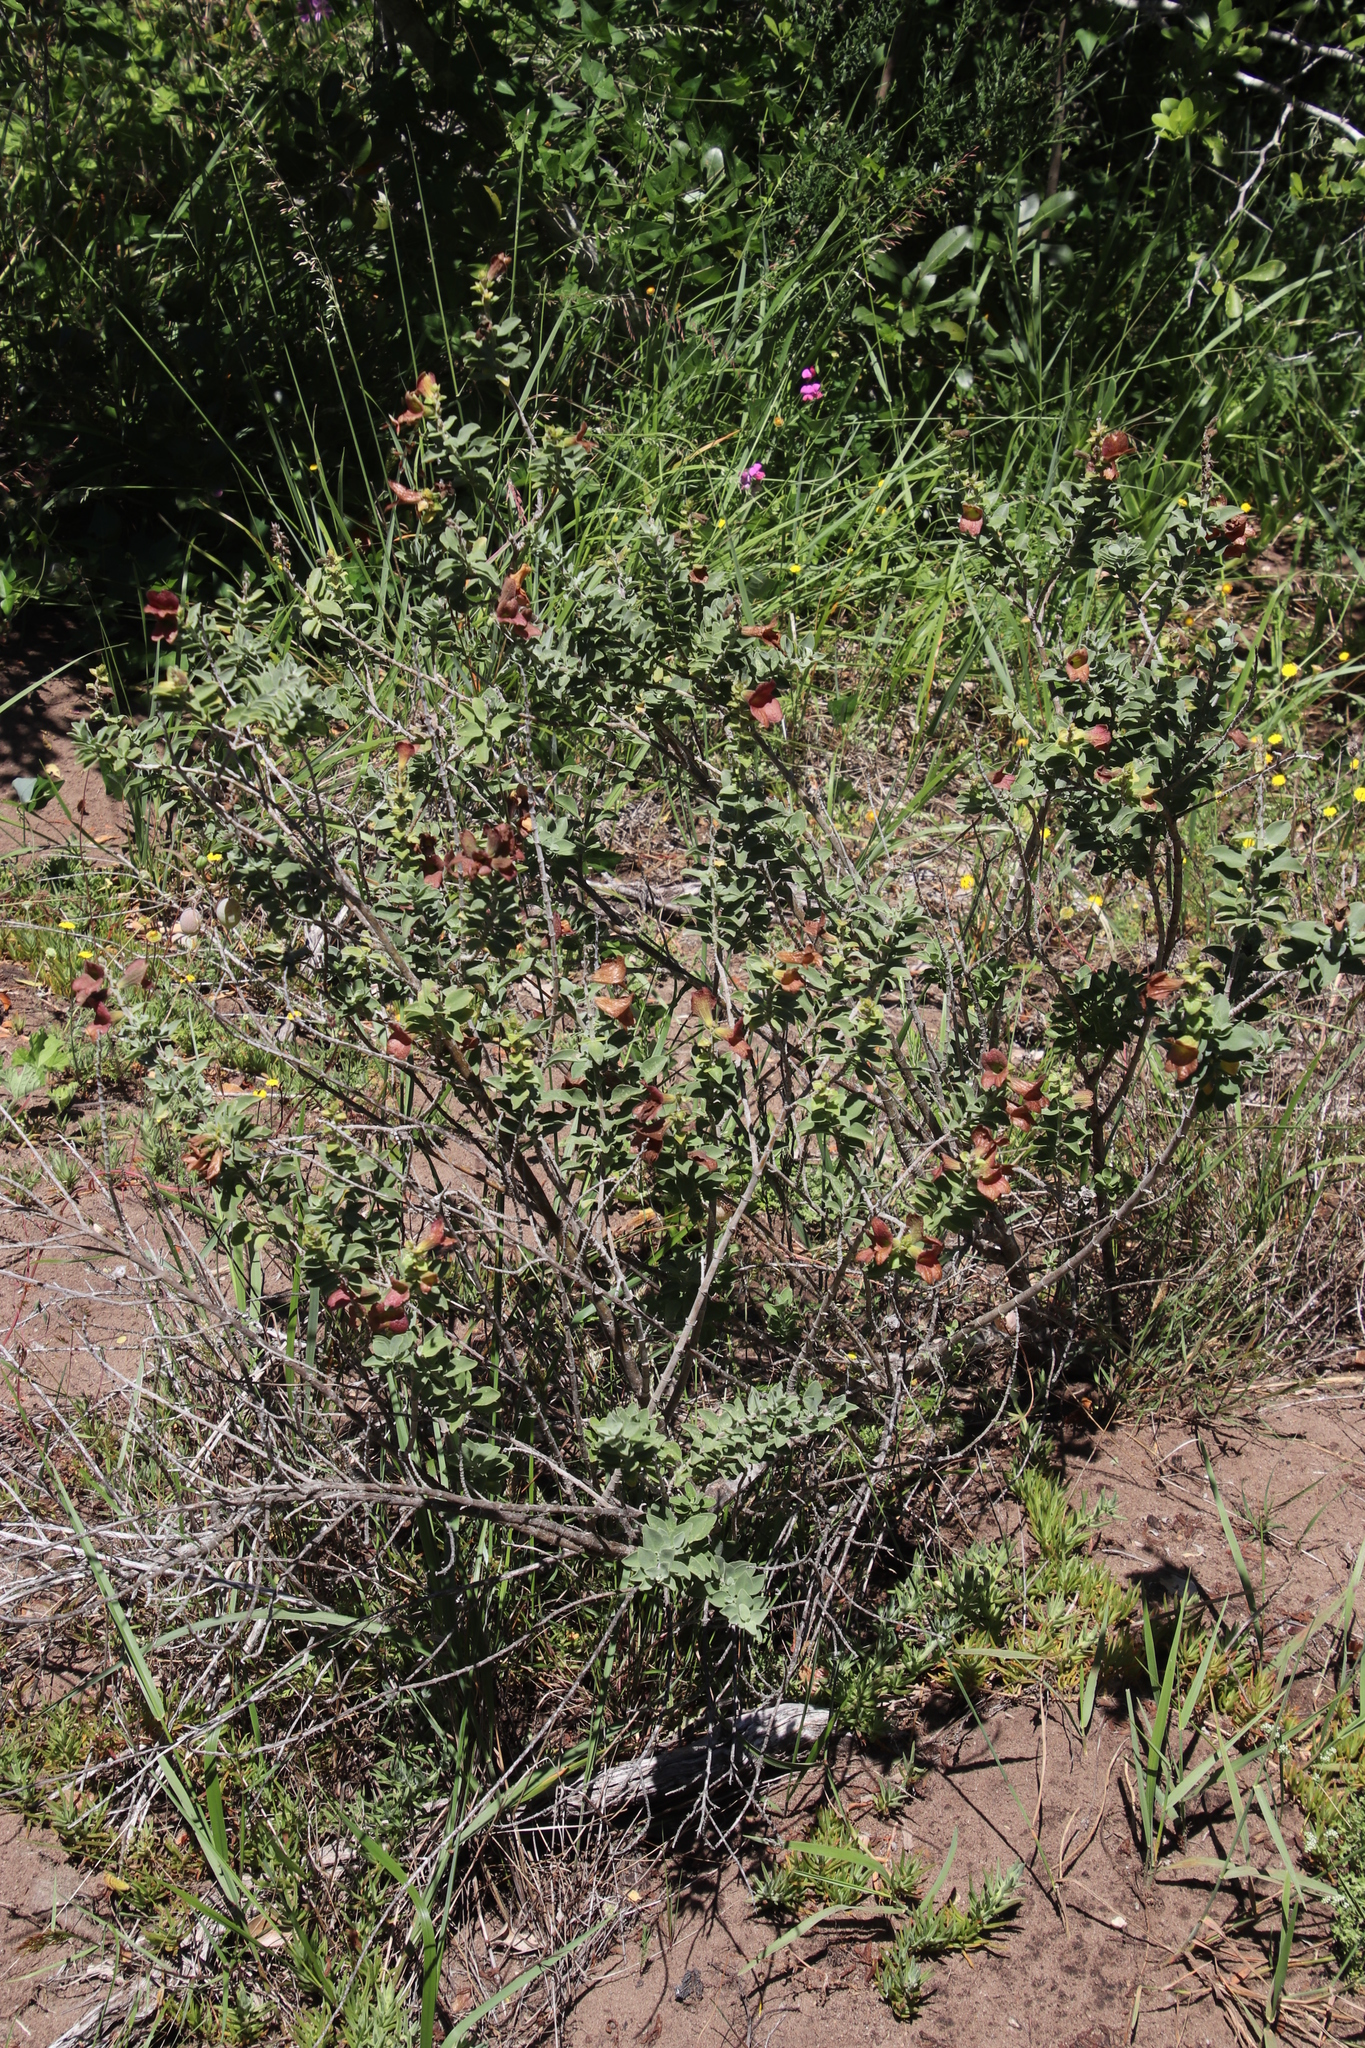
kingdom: Plantae
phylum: Tracheophyta
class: Magnoliopsida
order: Lamiales
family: Lamiaceae
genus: Salvia
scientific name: Salvia aurea
